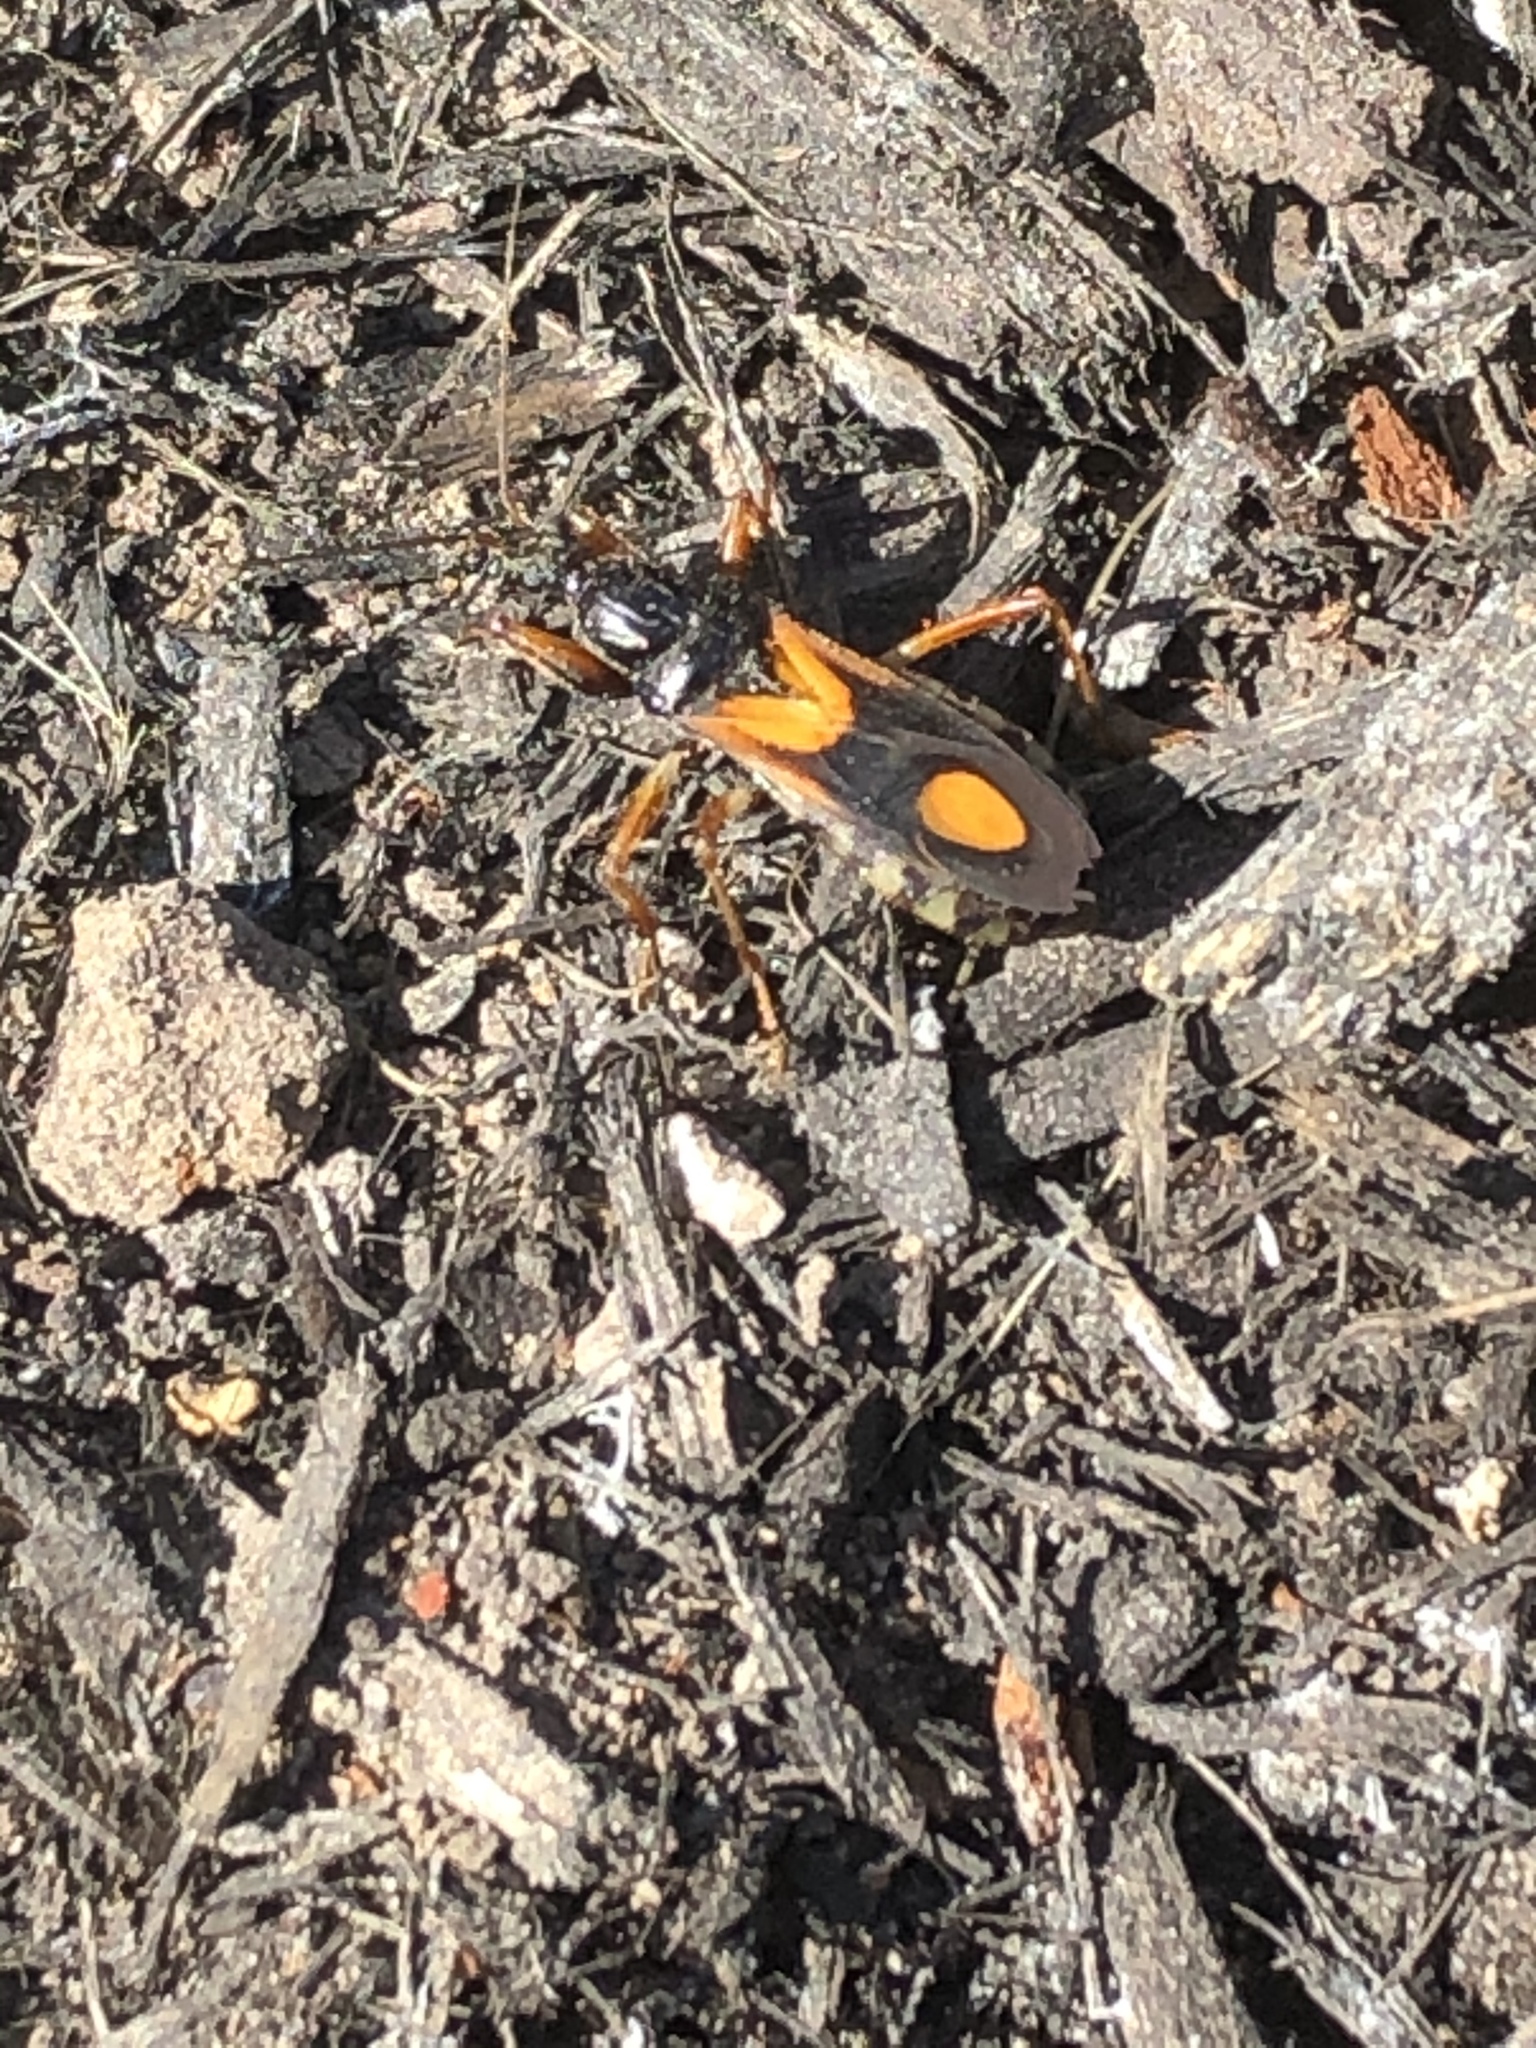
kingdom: Animalia
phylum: Arthropoda
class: Insecta
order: Hemiptera
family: Reduviidae
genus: Rasahus
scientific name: Rasahus biguttatus
